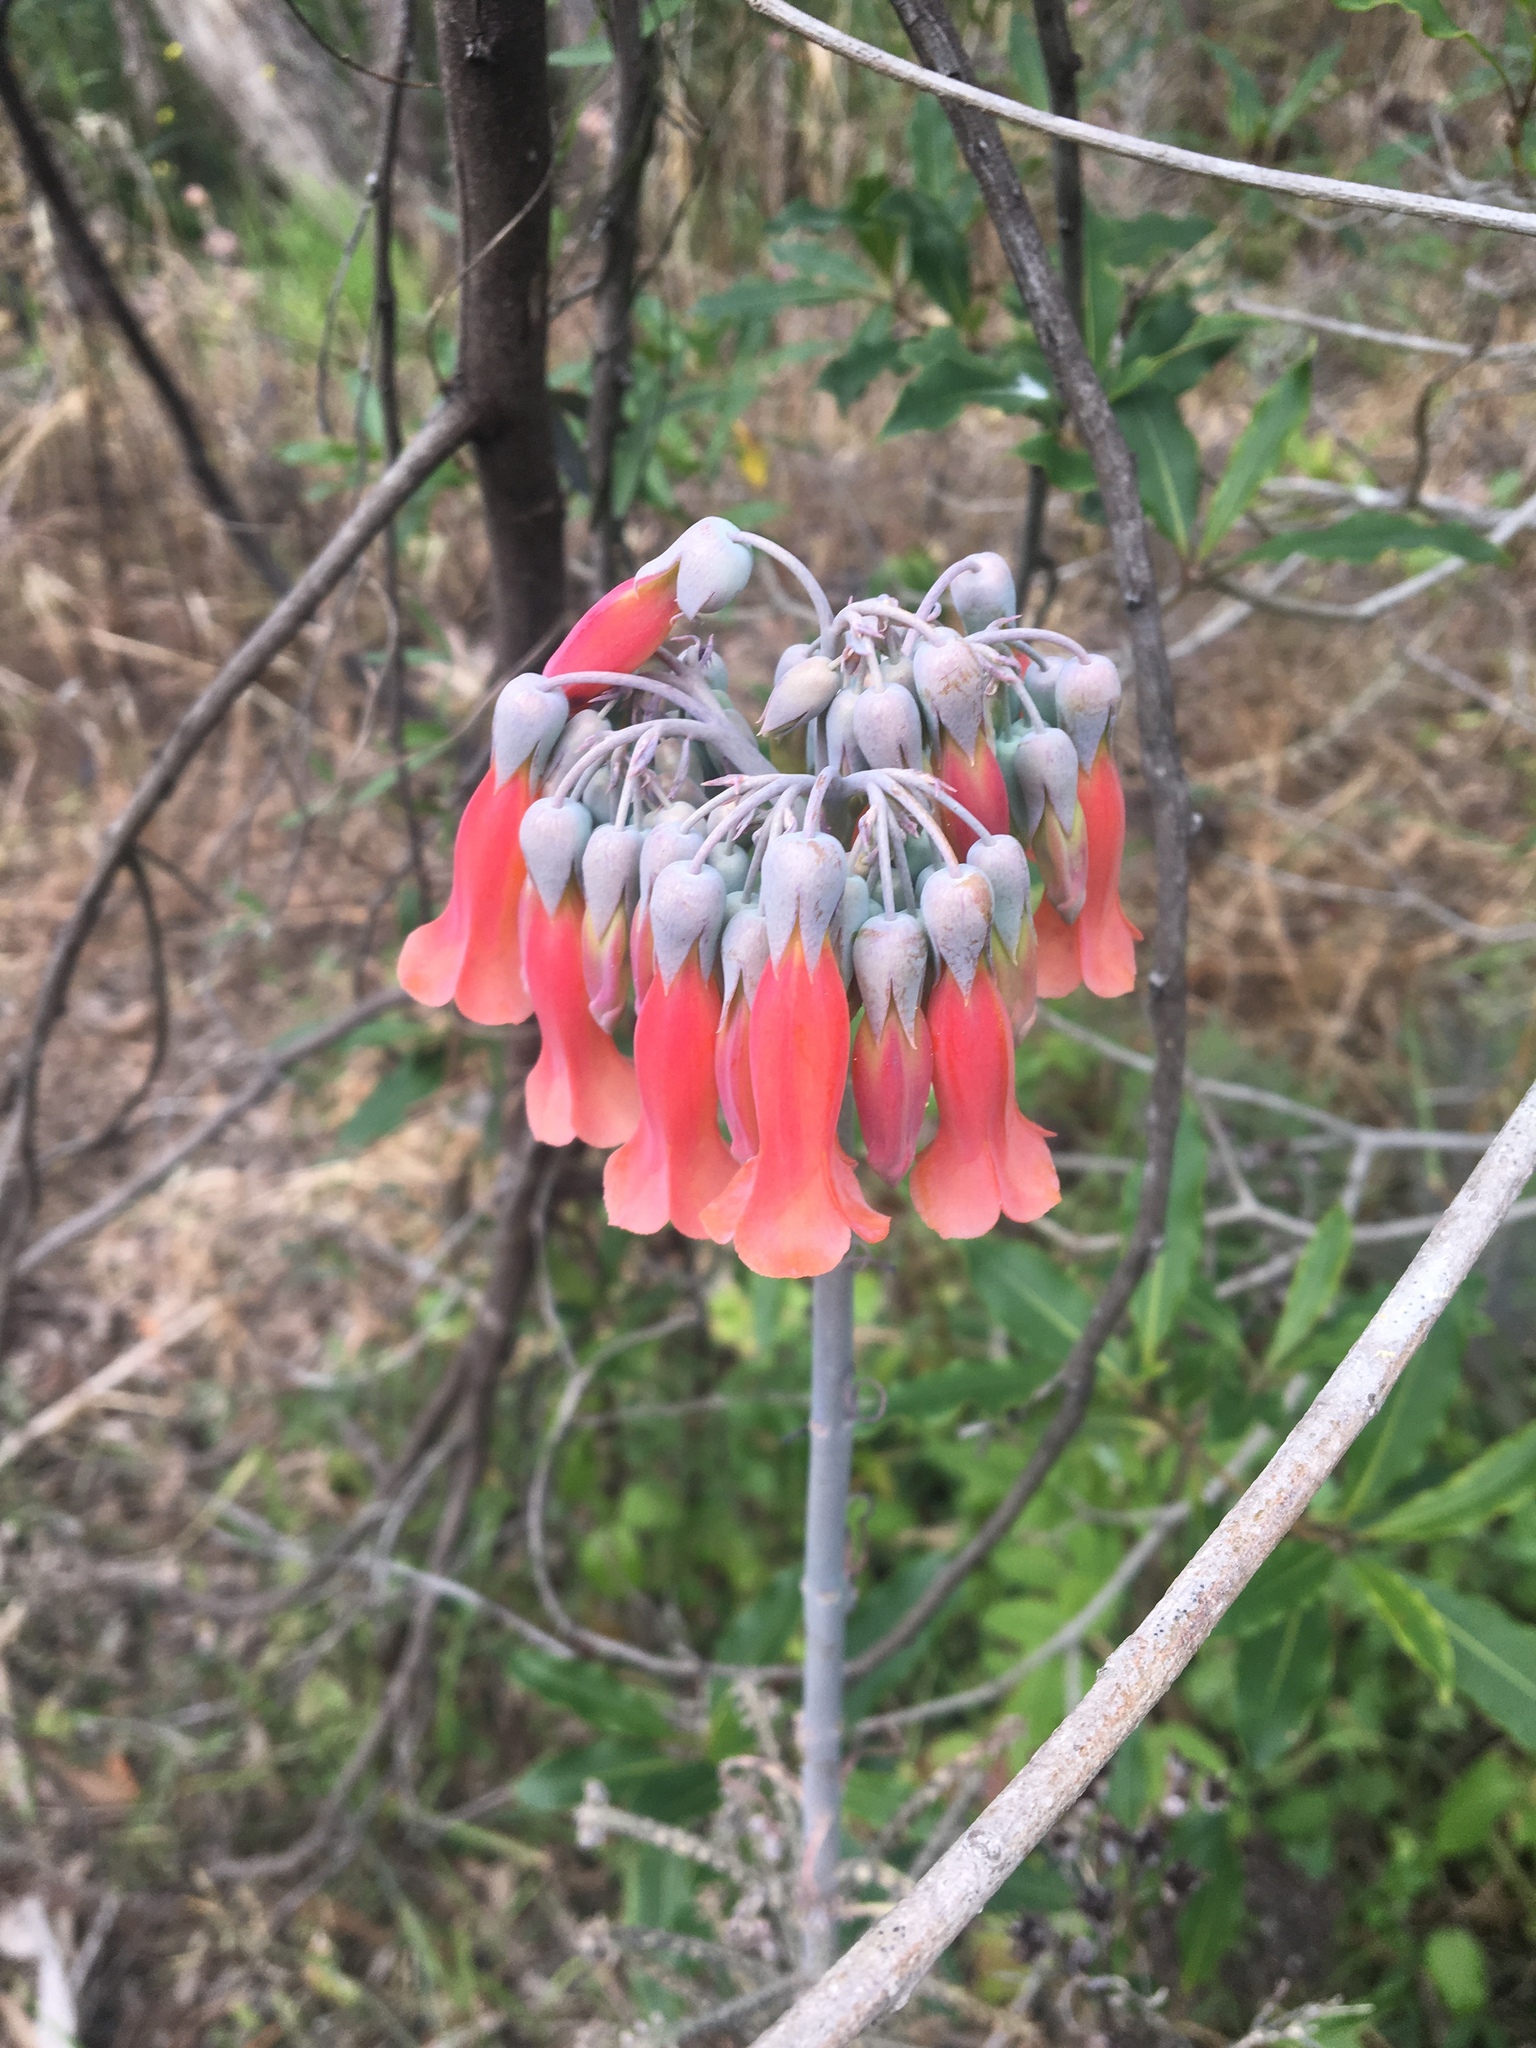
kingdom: Plantae
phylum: Tracheophyta
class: Magnoliopsida
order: Saxifragales
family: Crassulaceae
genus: Kalanchoe
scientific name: Kalanchoe delagoensis
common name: Chandelier plant
